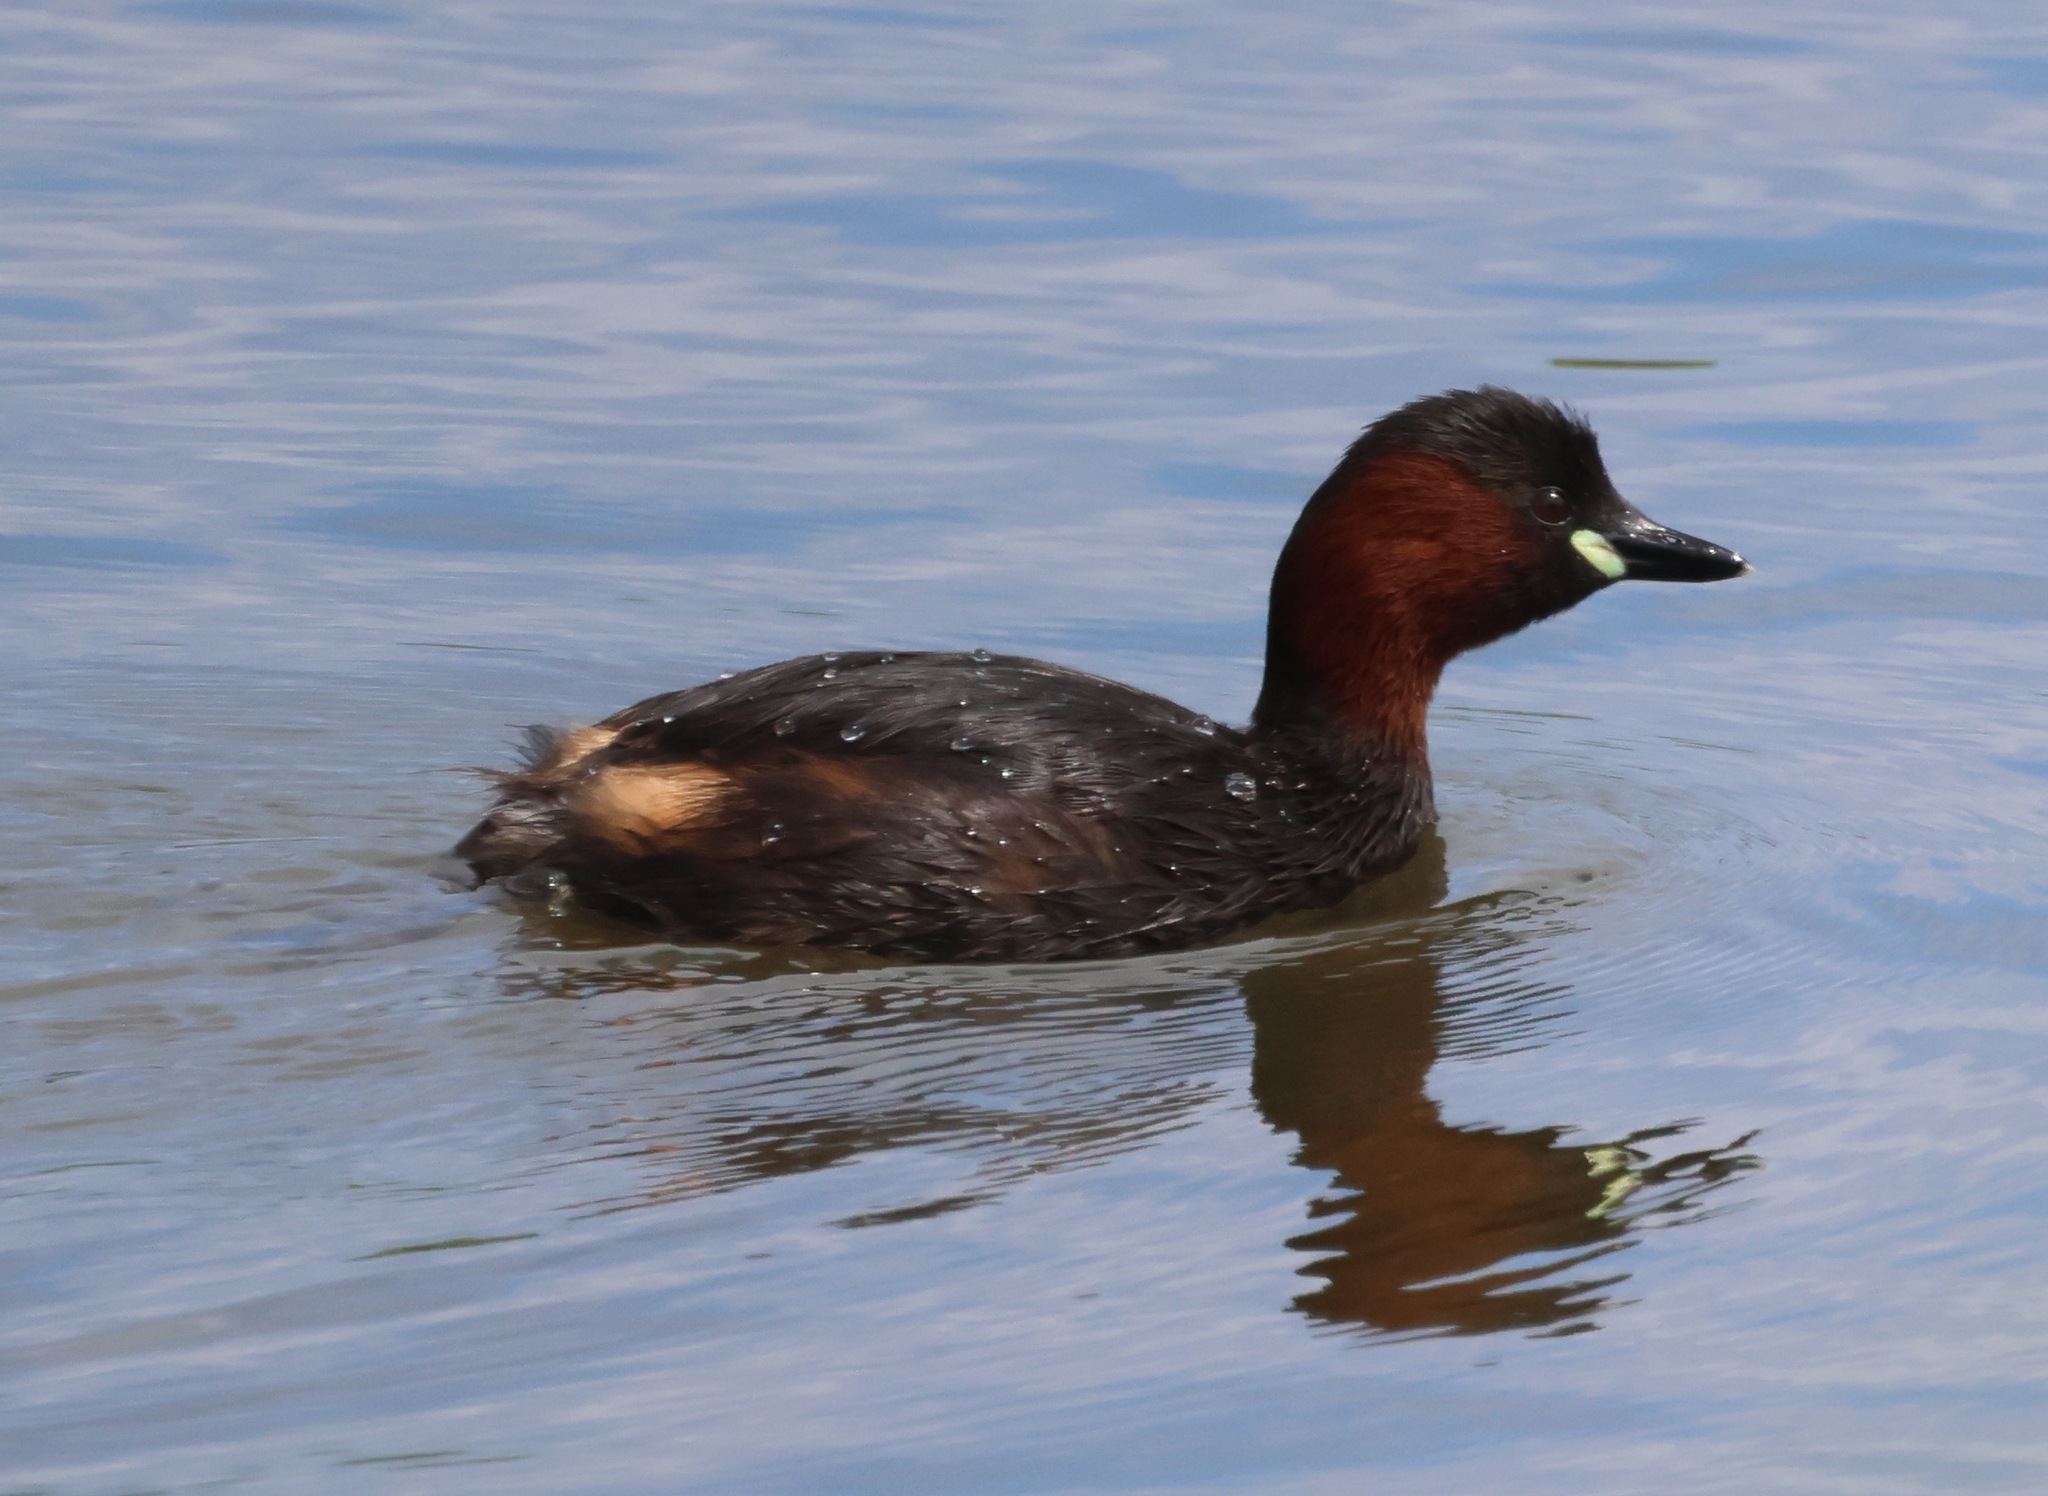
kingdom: Animalia
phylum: Chordata
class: Aves
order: Podicipediformes
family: Podicipedidae
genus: Tachybaptus
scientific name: Tachybaptus ruficollis
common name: Little grebe
